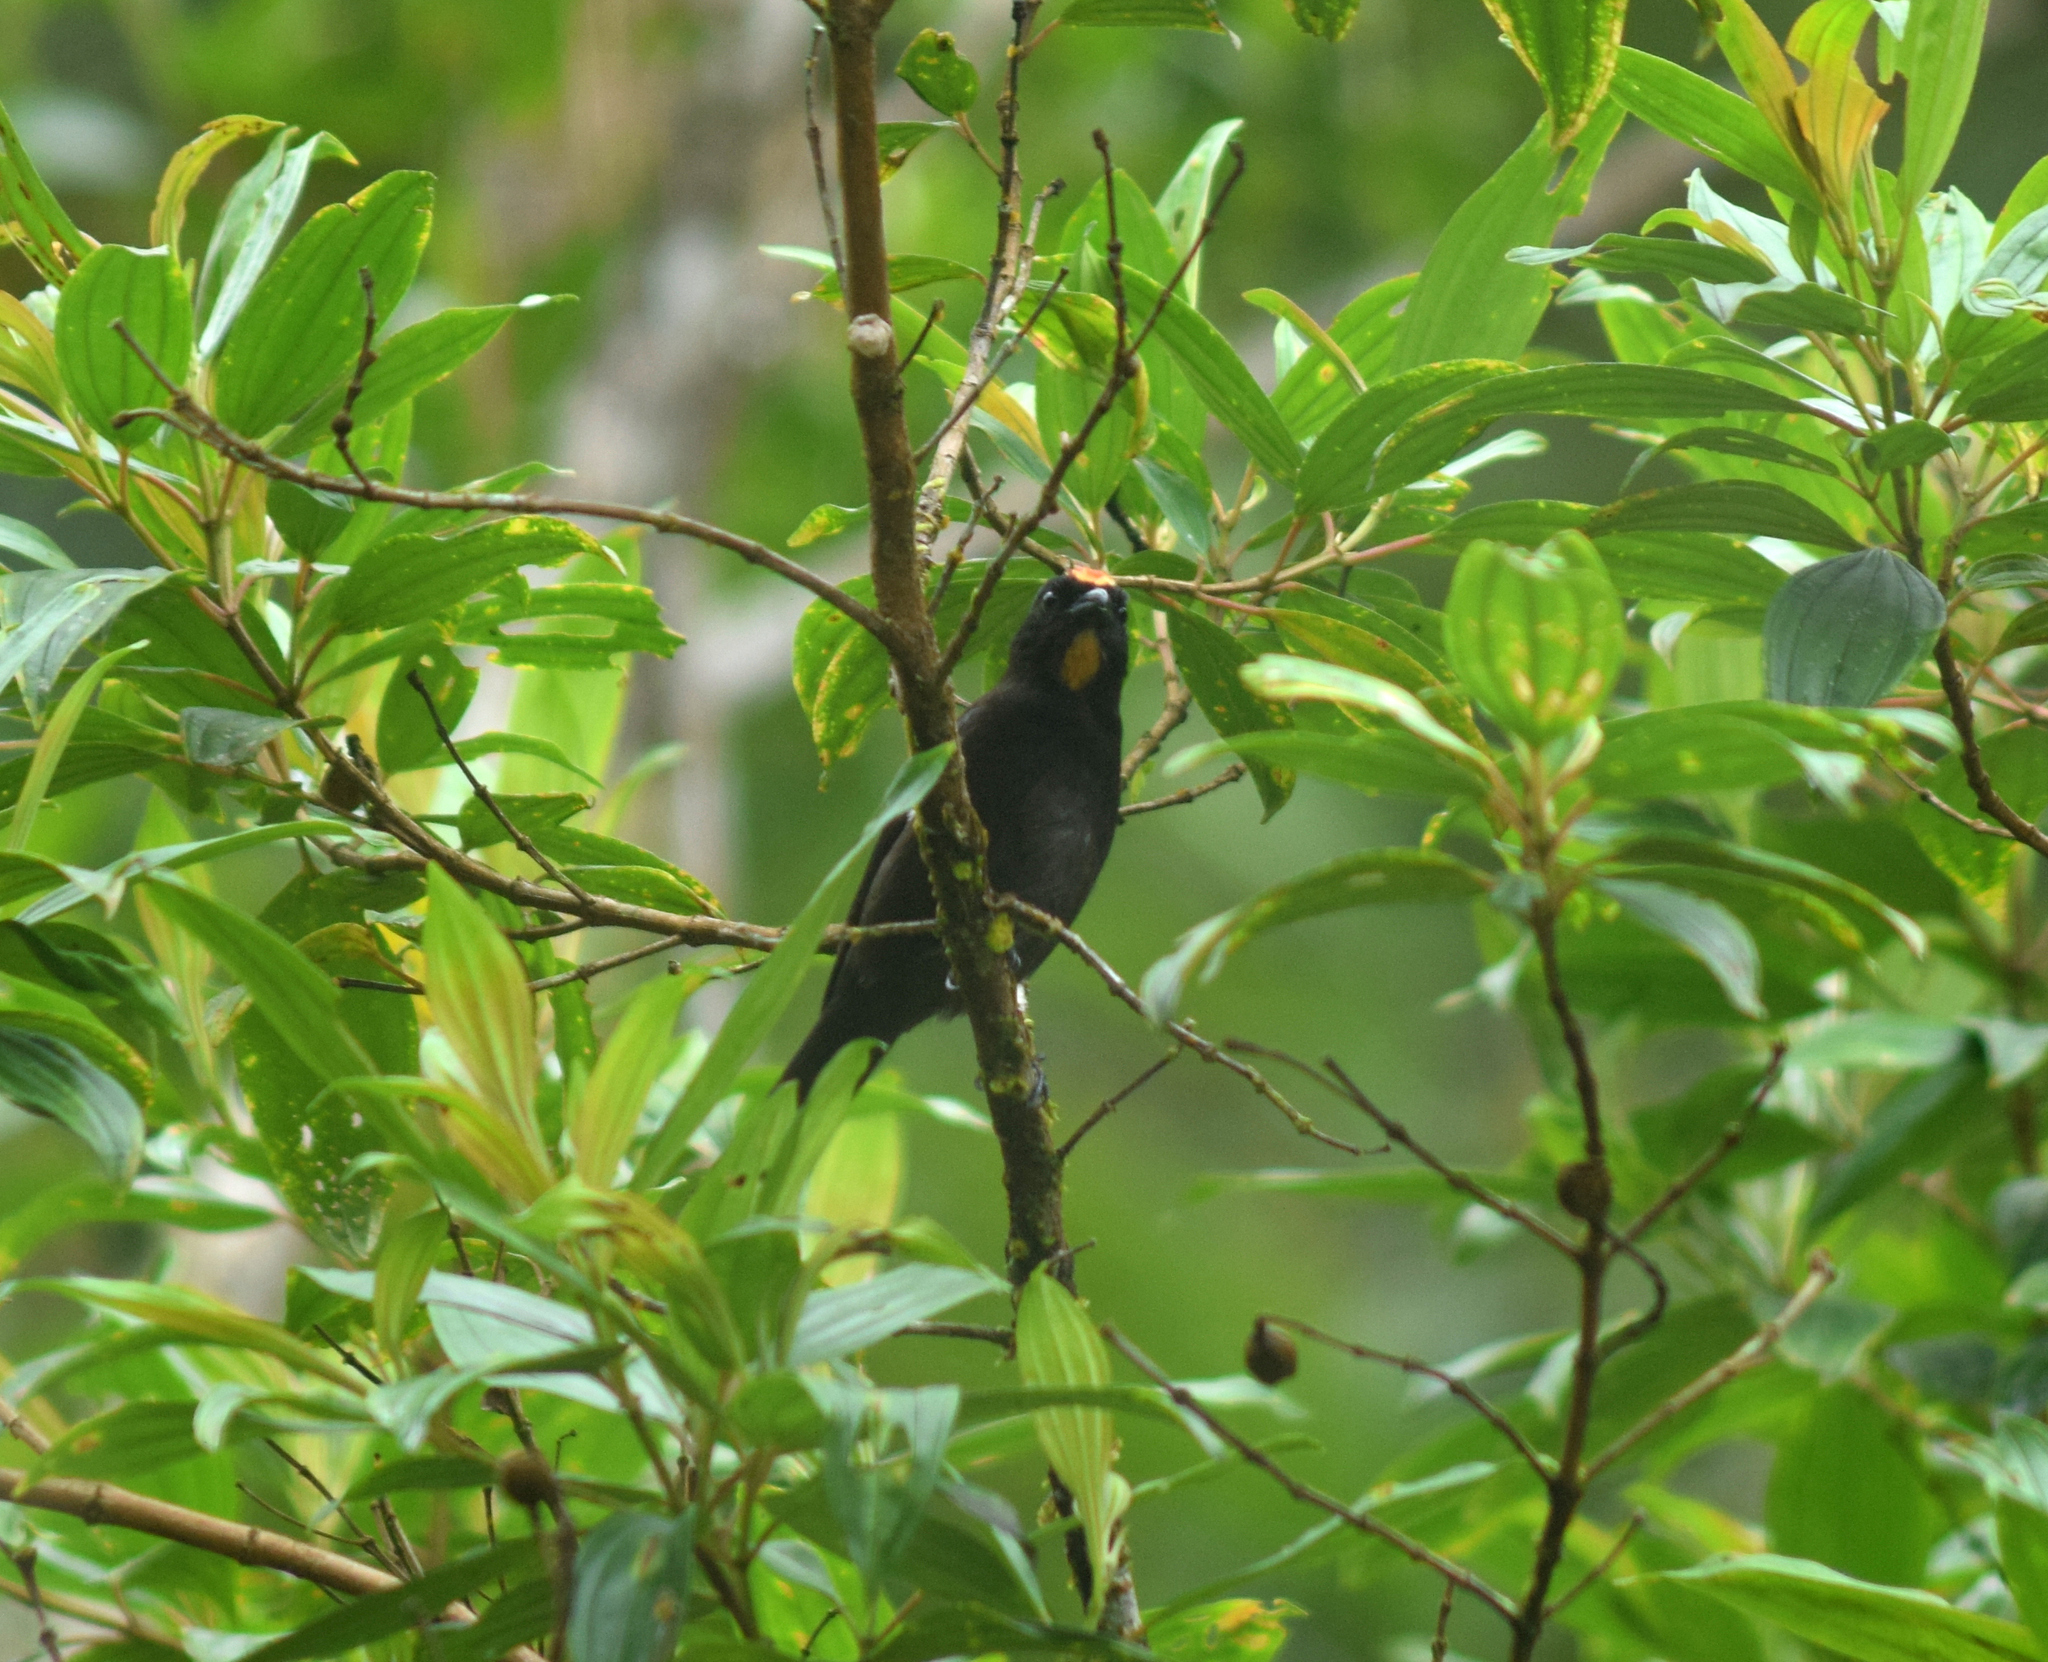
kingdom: Animalia
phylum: Chordata
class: Aves
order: Passeriformes
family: Thraupidae
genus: Loriotus
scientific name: Loriotus cristatus
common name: Flame-crested tanager
